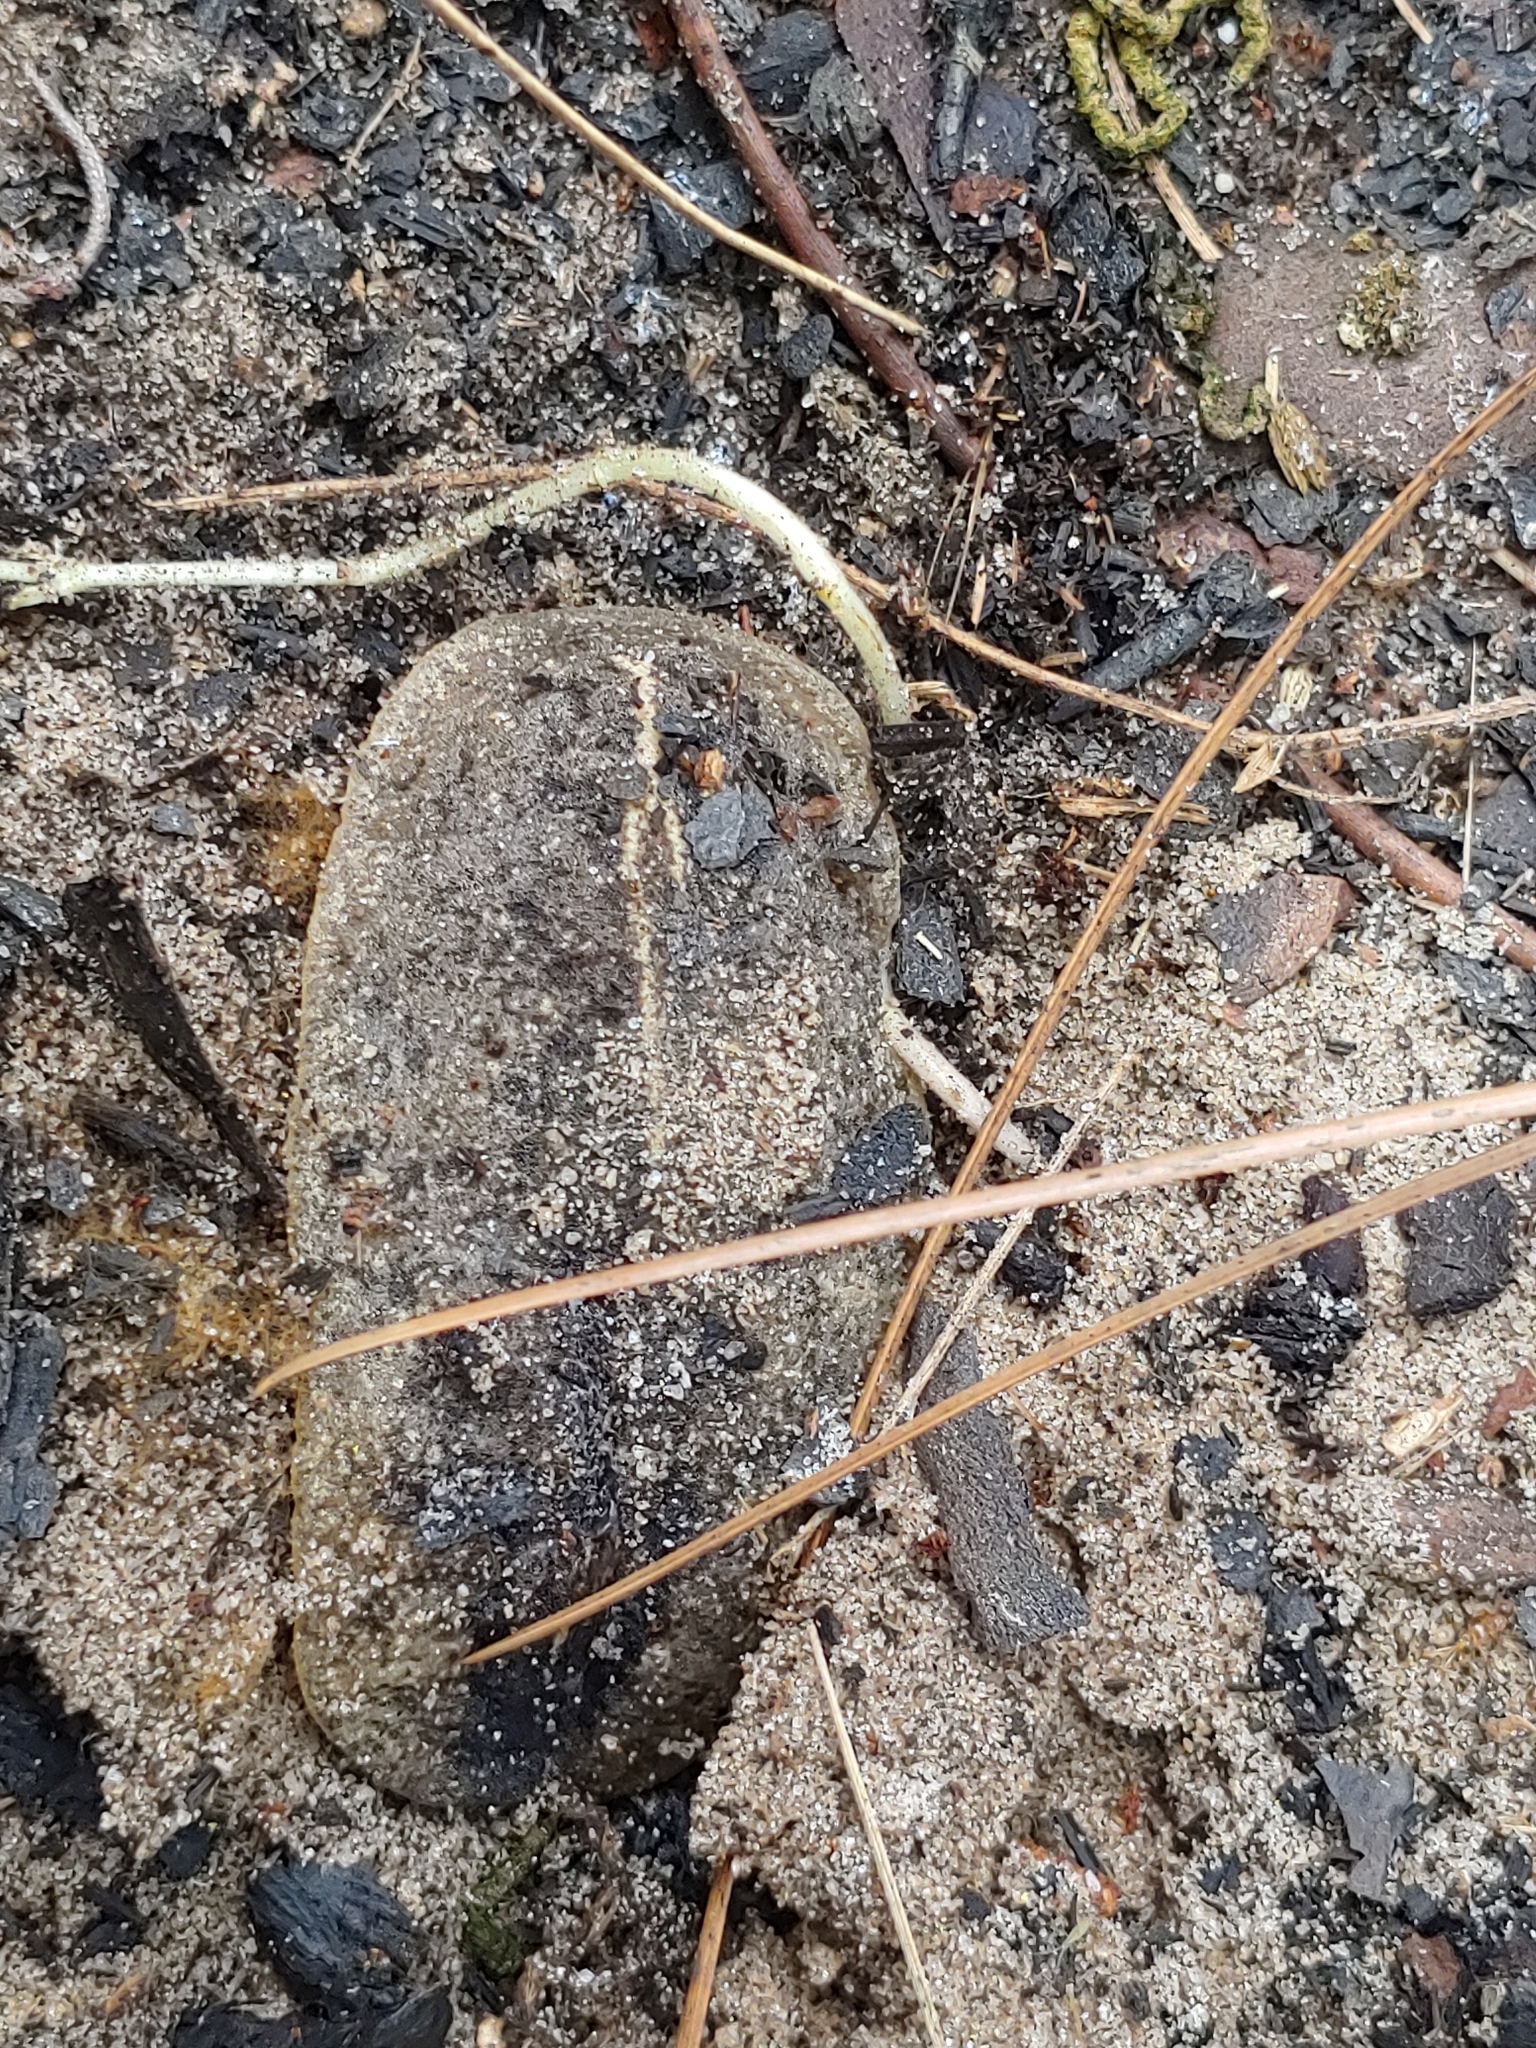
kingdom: Animalia
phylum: Mollusca
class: Gastropoda
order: Systellommatophora
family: Veronicellidae
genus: Leidyula
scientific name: Leidyula floridana
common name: Florida leatherleaf
